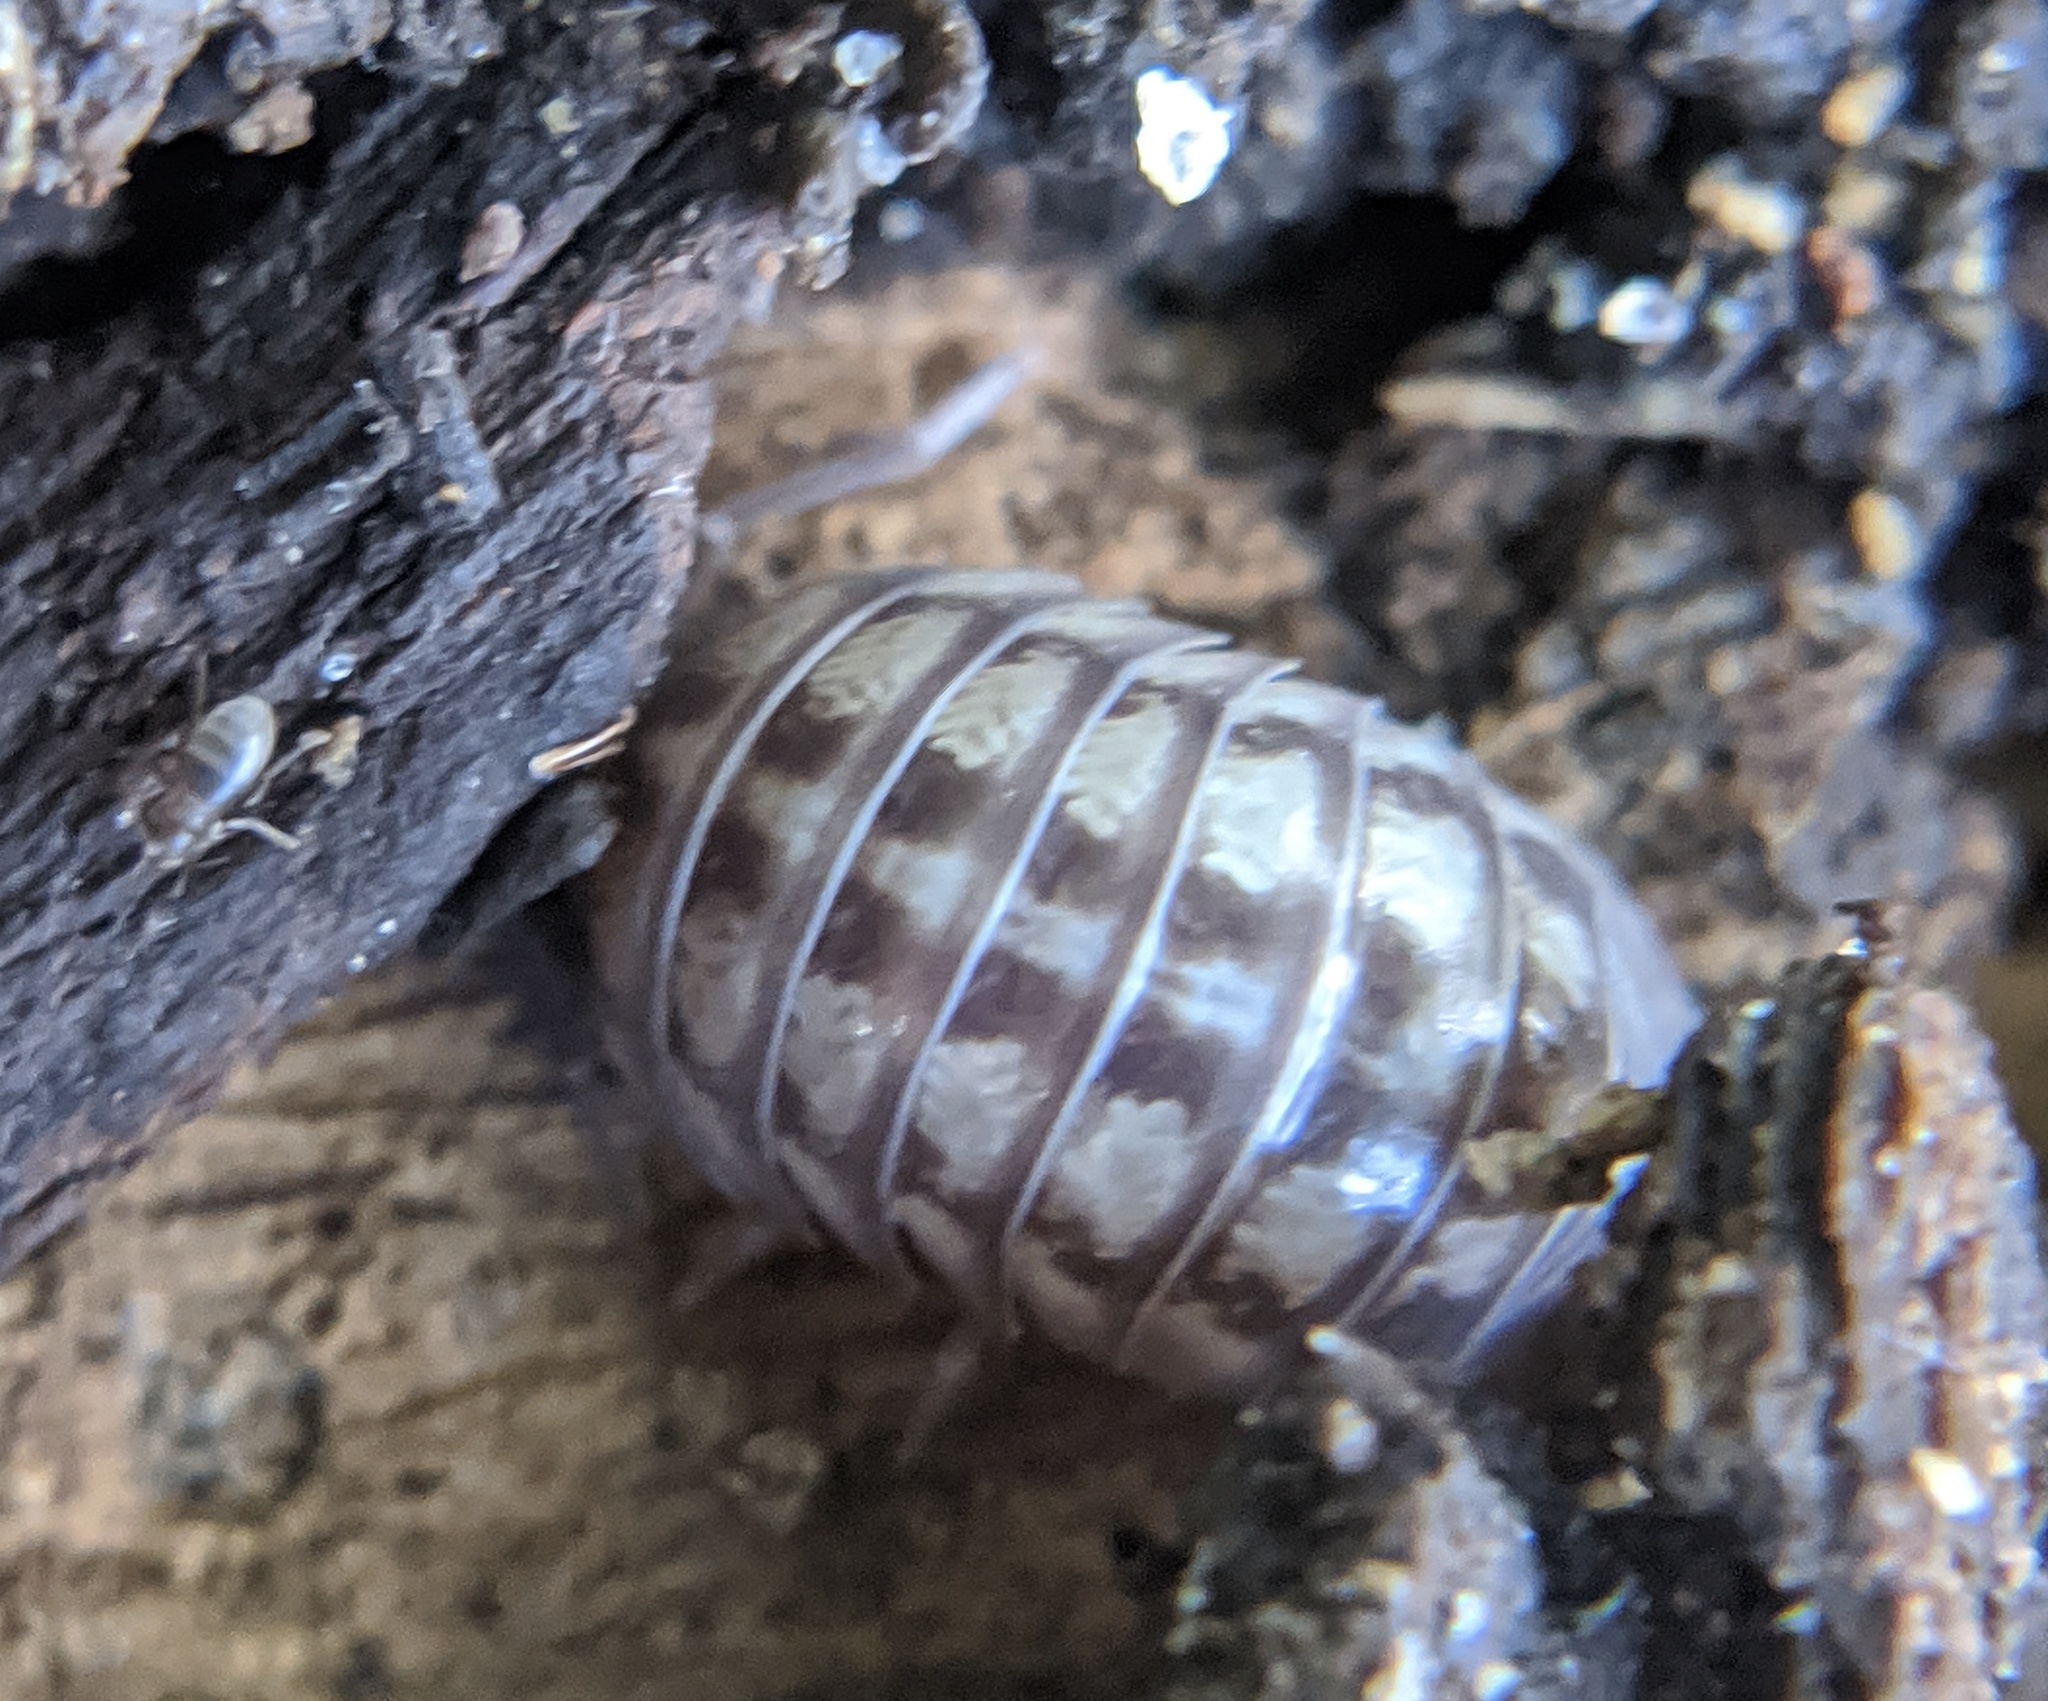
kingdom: Animalia
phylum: Arthropoda
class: Malacostraca
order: Isopoda
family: Armadillidiidae
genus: Armadillidium
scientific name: Armadillidium nasatum
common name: Isopod
